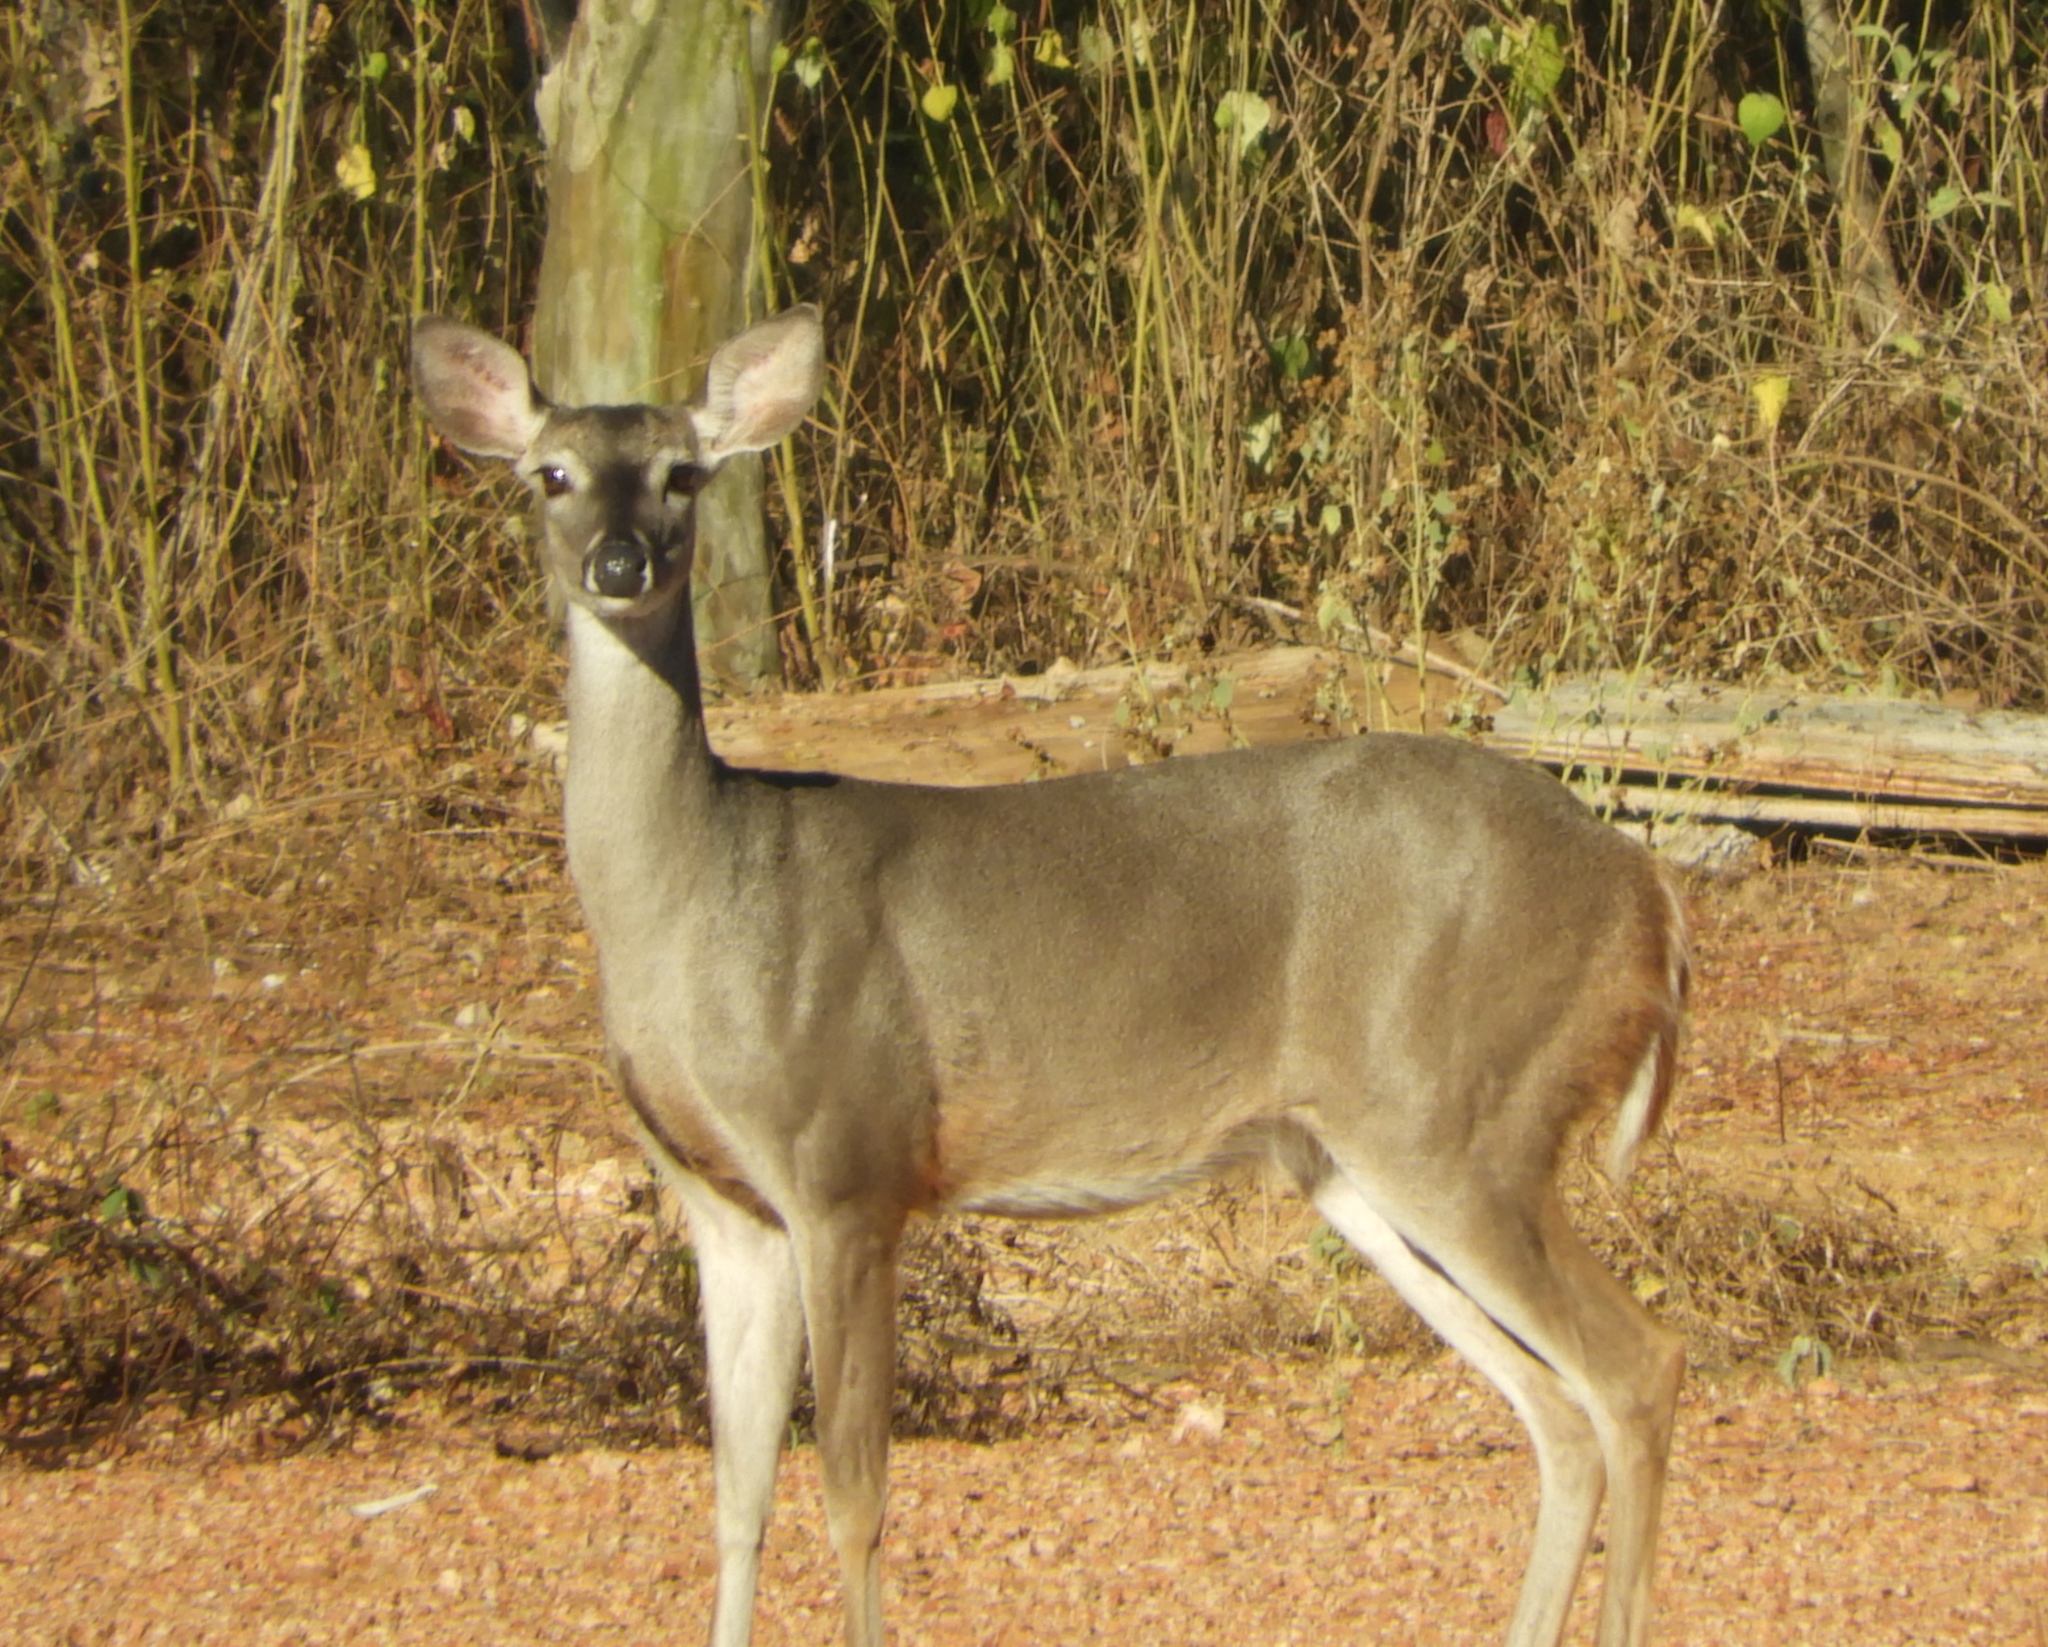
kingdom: Animalia
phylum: Chordata
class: Mammalia
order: Artiodactyla
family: Cervidae
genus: Odocoileus
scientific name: Odocoileus virginianus
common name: White-tailed deer
